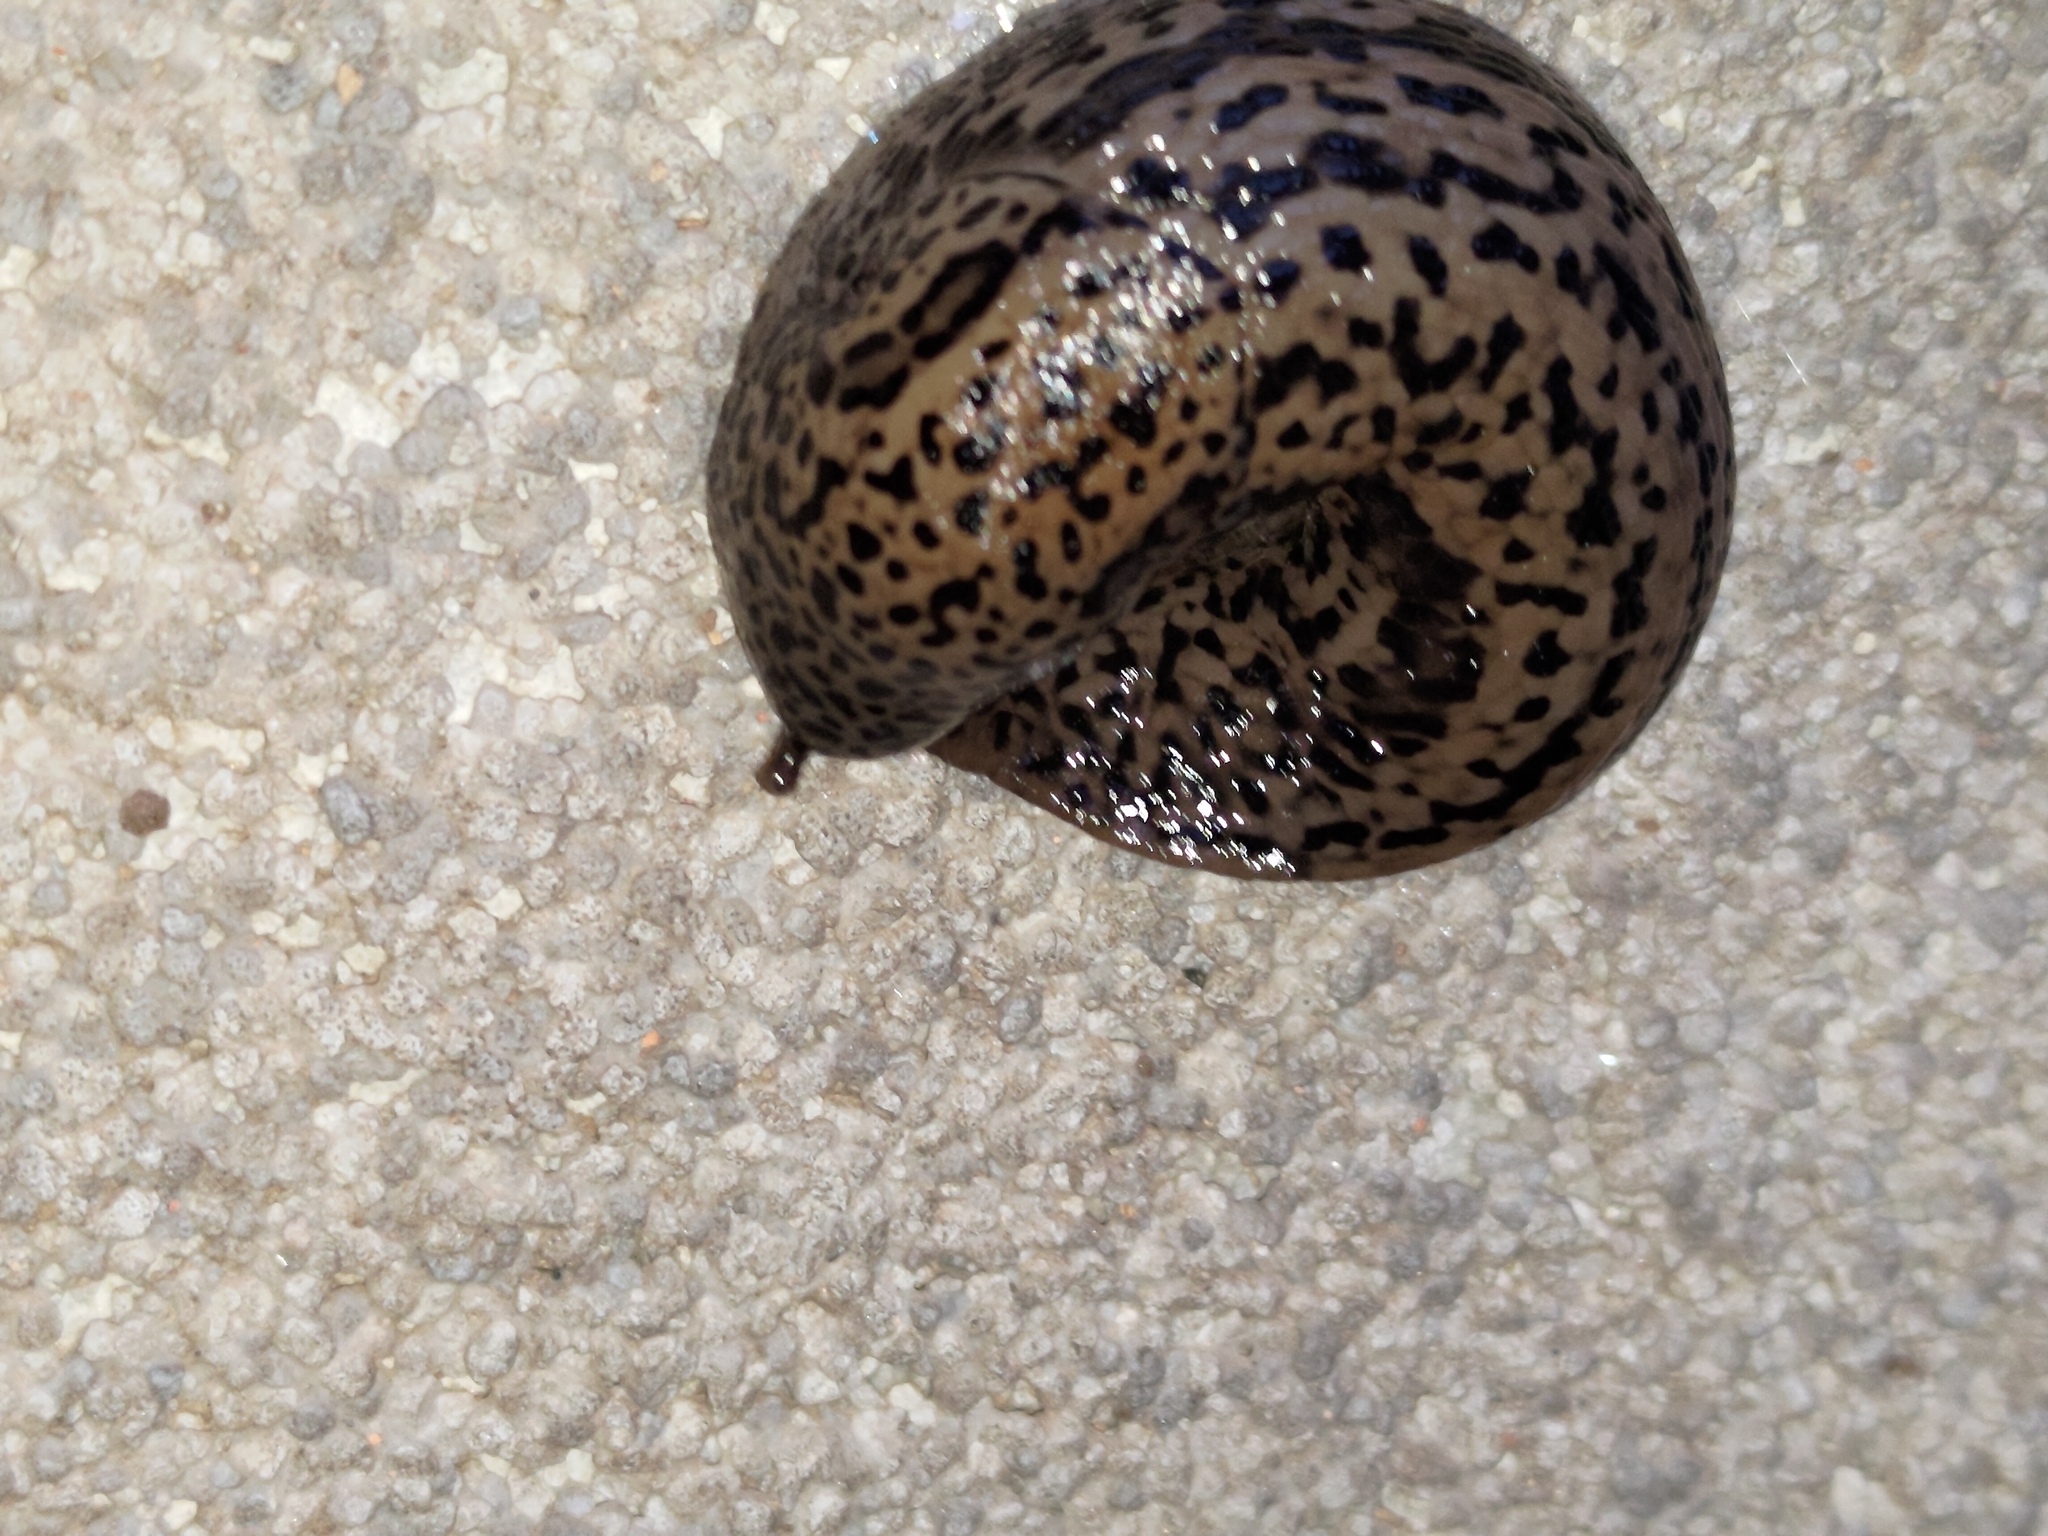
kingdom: Animalia
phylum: Mollusca
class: Gastropoda
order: Stylommatophora
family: Limacidae
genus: Limax
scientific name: Limax maximus
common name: Great grey slug
